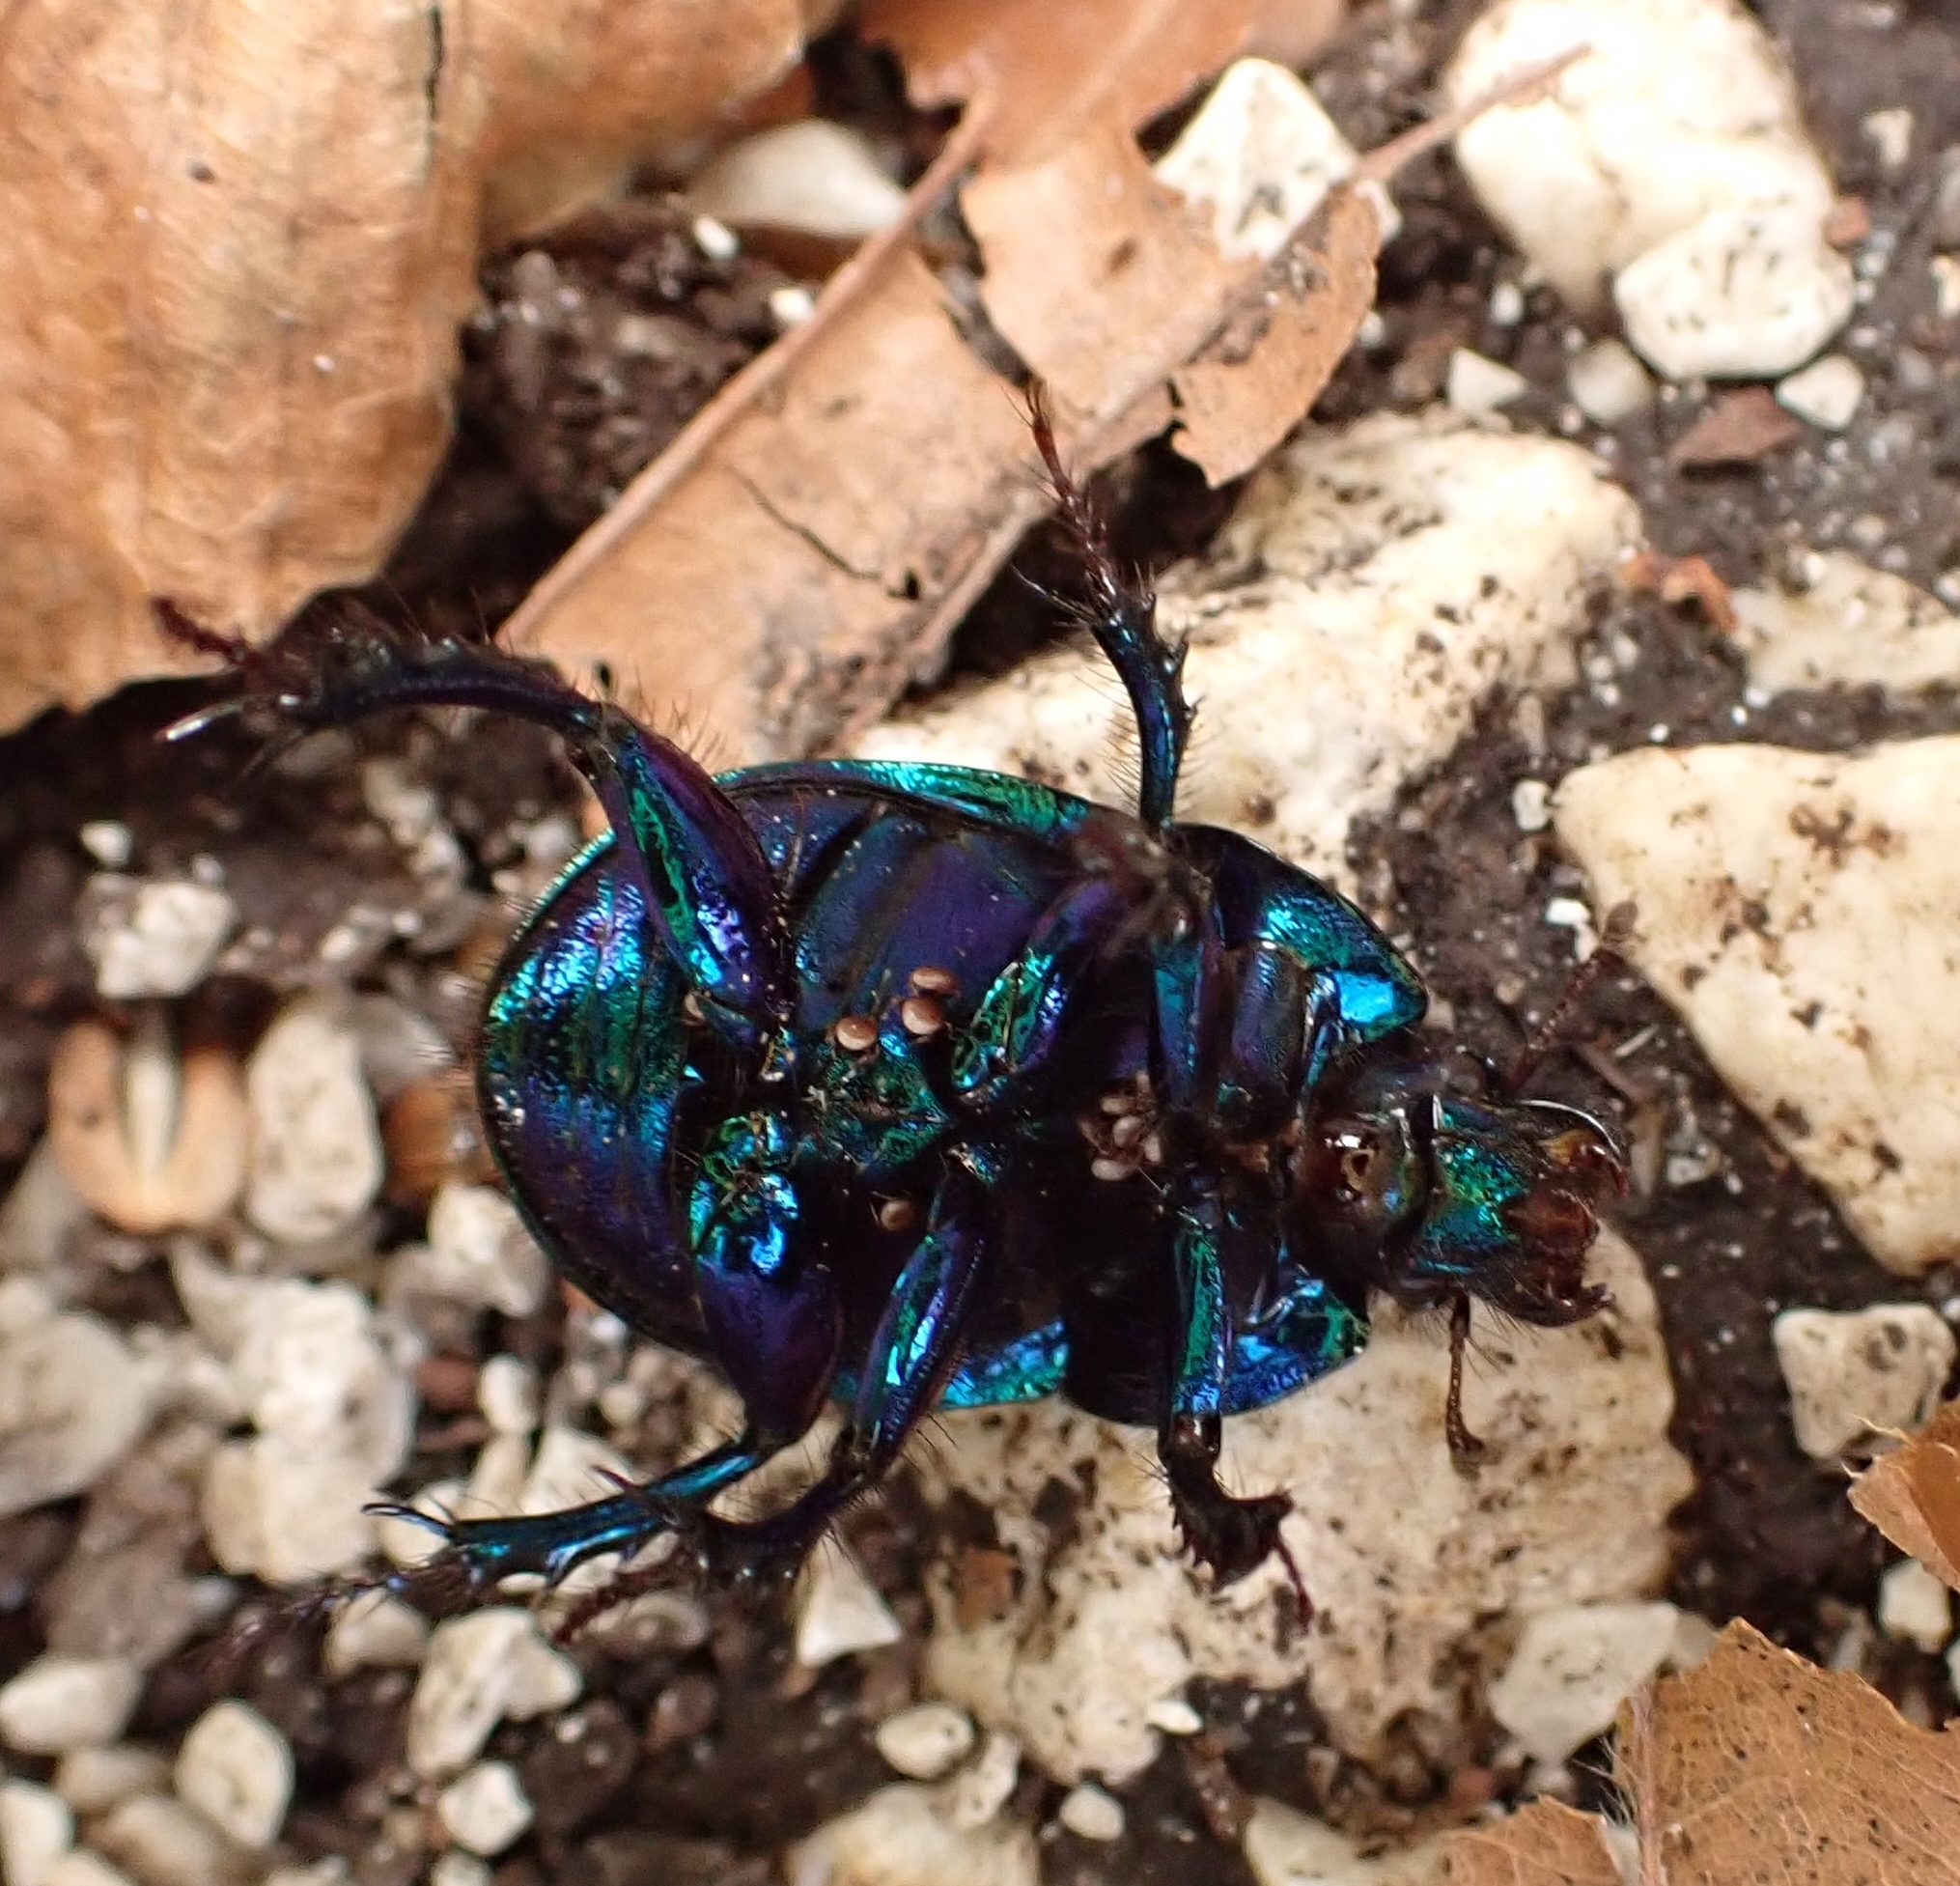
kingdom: Animalia
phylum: Arthropoda
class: Insecta
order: Coleoptera
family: Geotrupidae
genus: Anoplotrupes
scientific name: Anoplotrupes stercorosus
